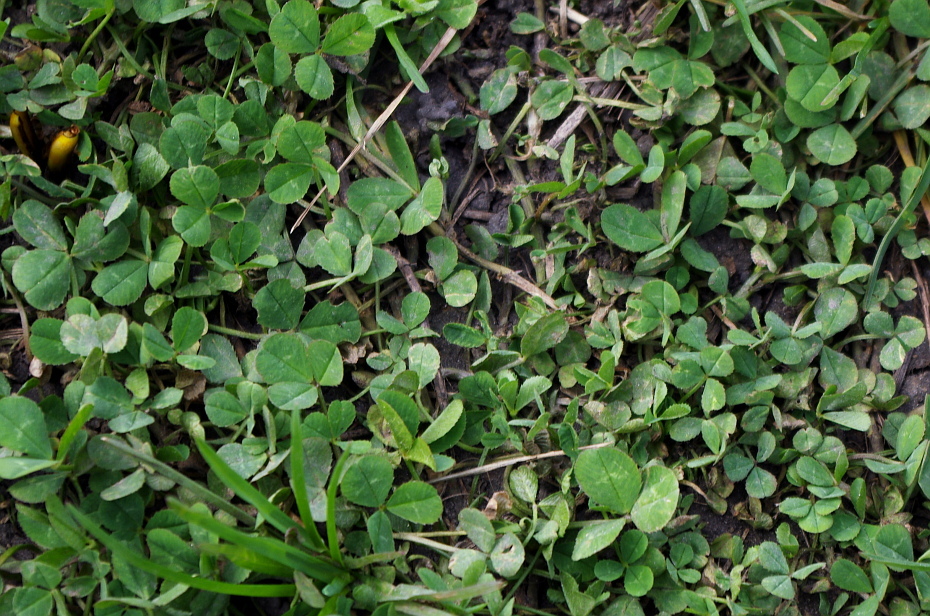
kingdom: Plantae
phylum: Tracheophyta
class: Magnoliopsida
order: Fabales
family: Fabaceae
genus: Trifolium
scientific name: Trifolium repens
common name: White clover
